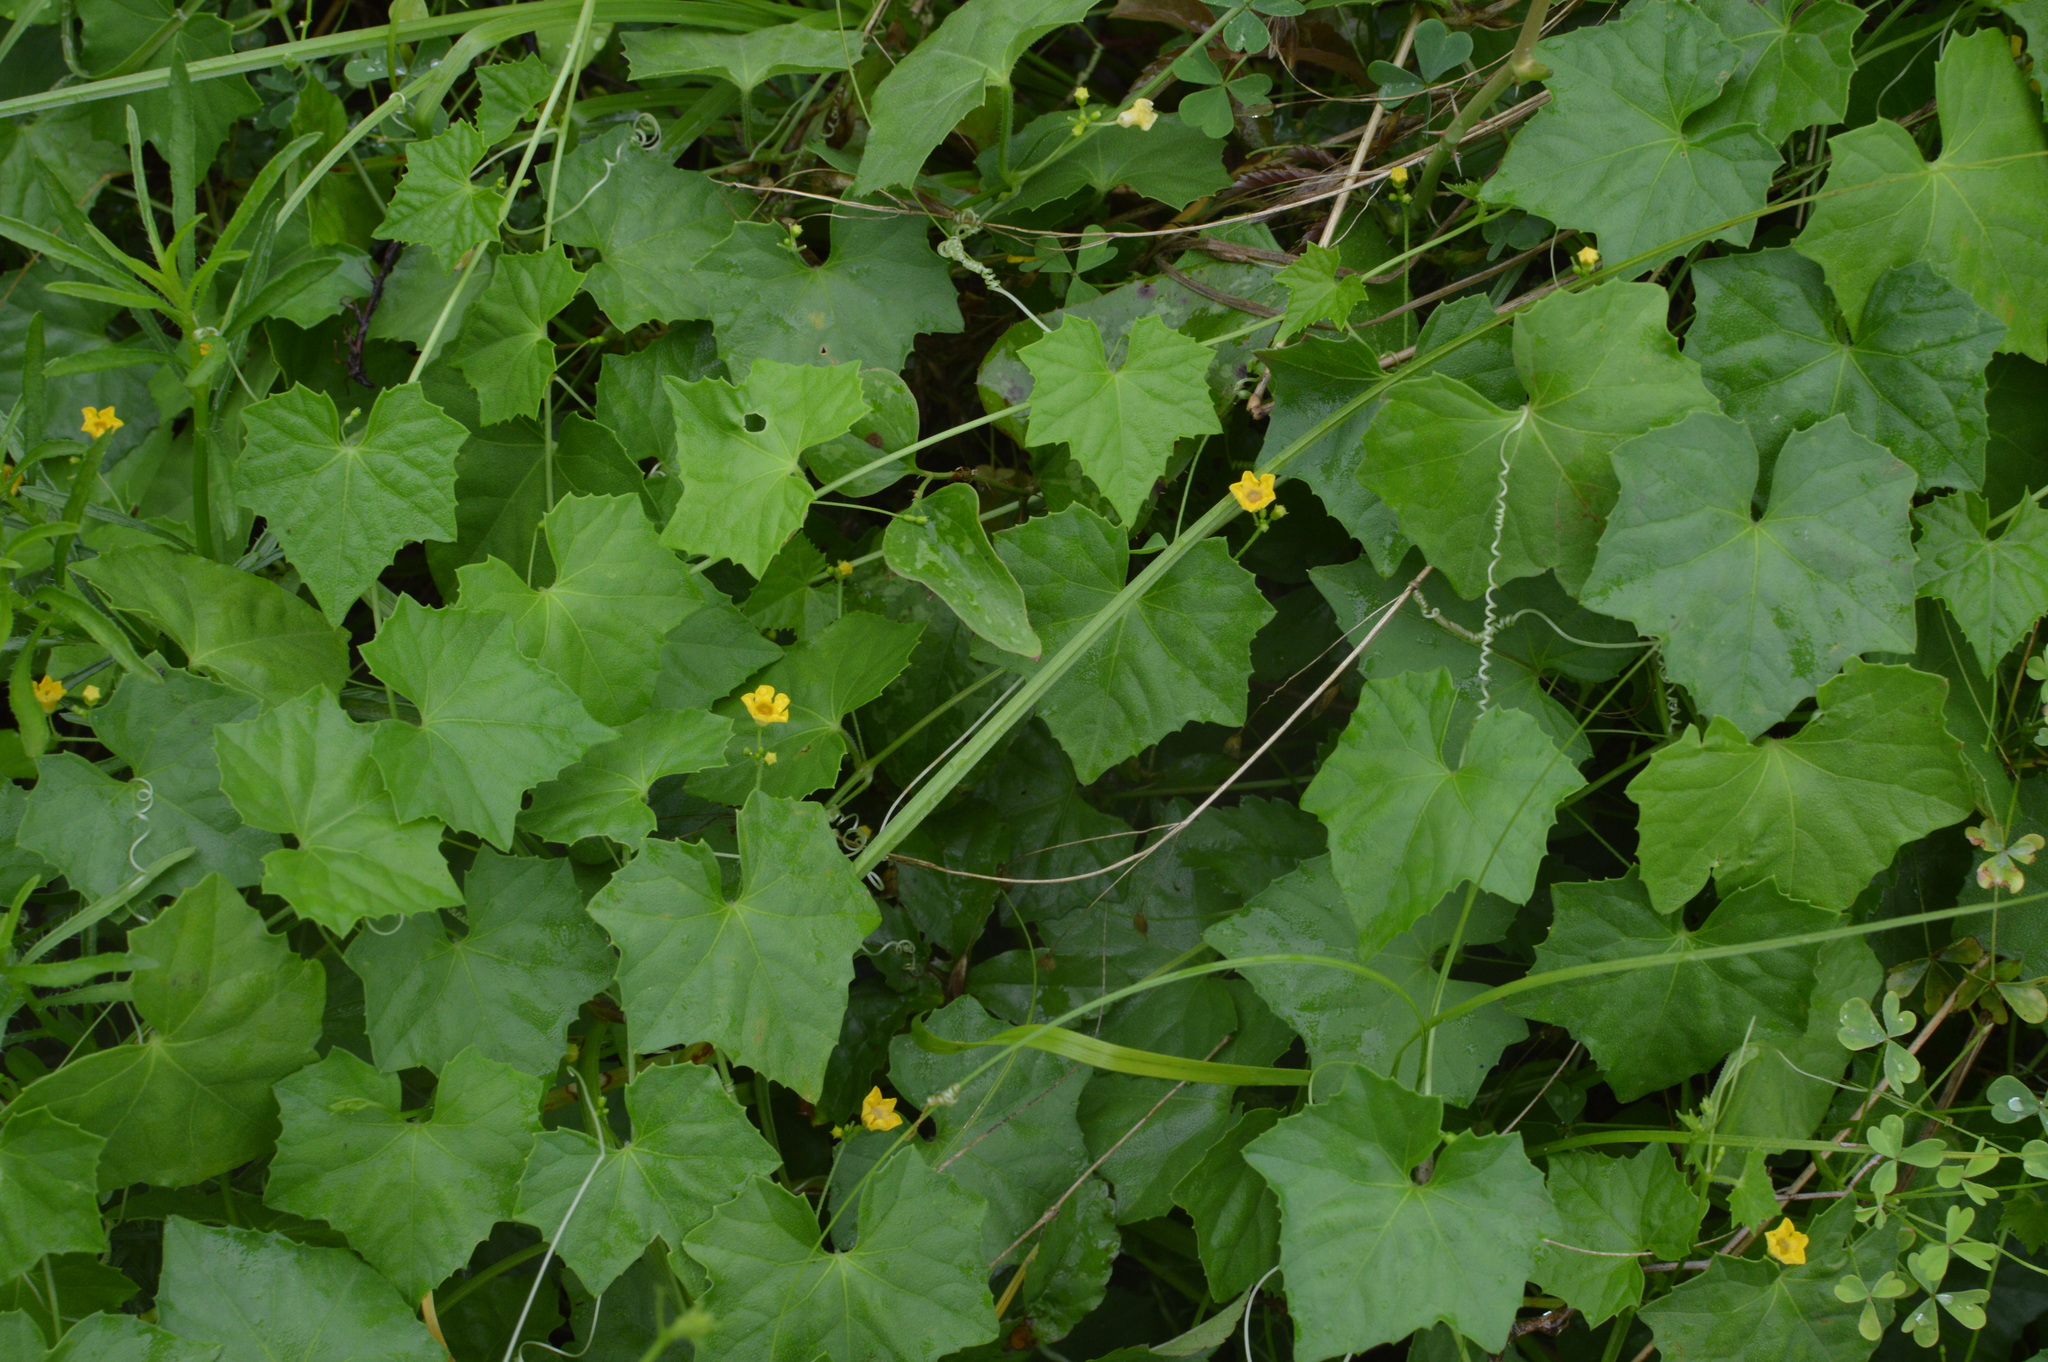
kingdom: Plantae
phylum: Tracheophyta
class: Magnoliopsida
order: Cucurbitales
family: Cucurbitaceae
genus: Melothria
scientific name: Melothria pendula
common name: Creeping-cucumber
